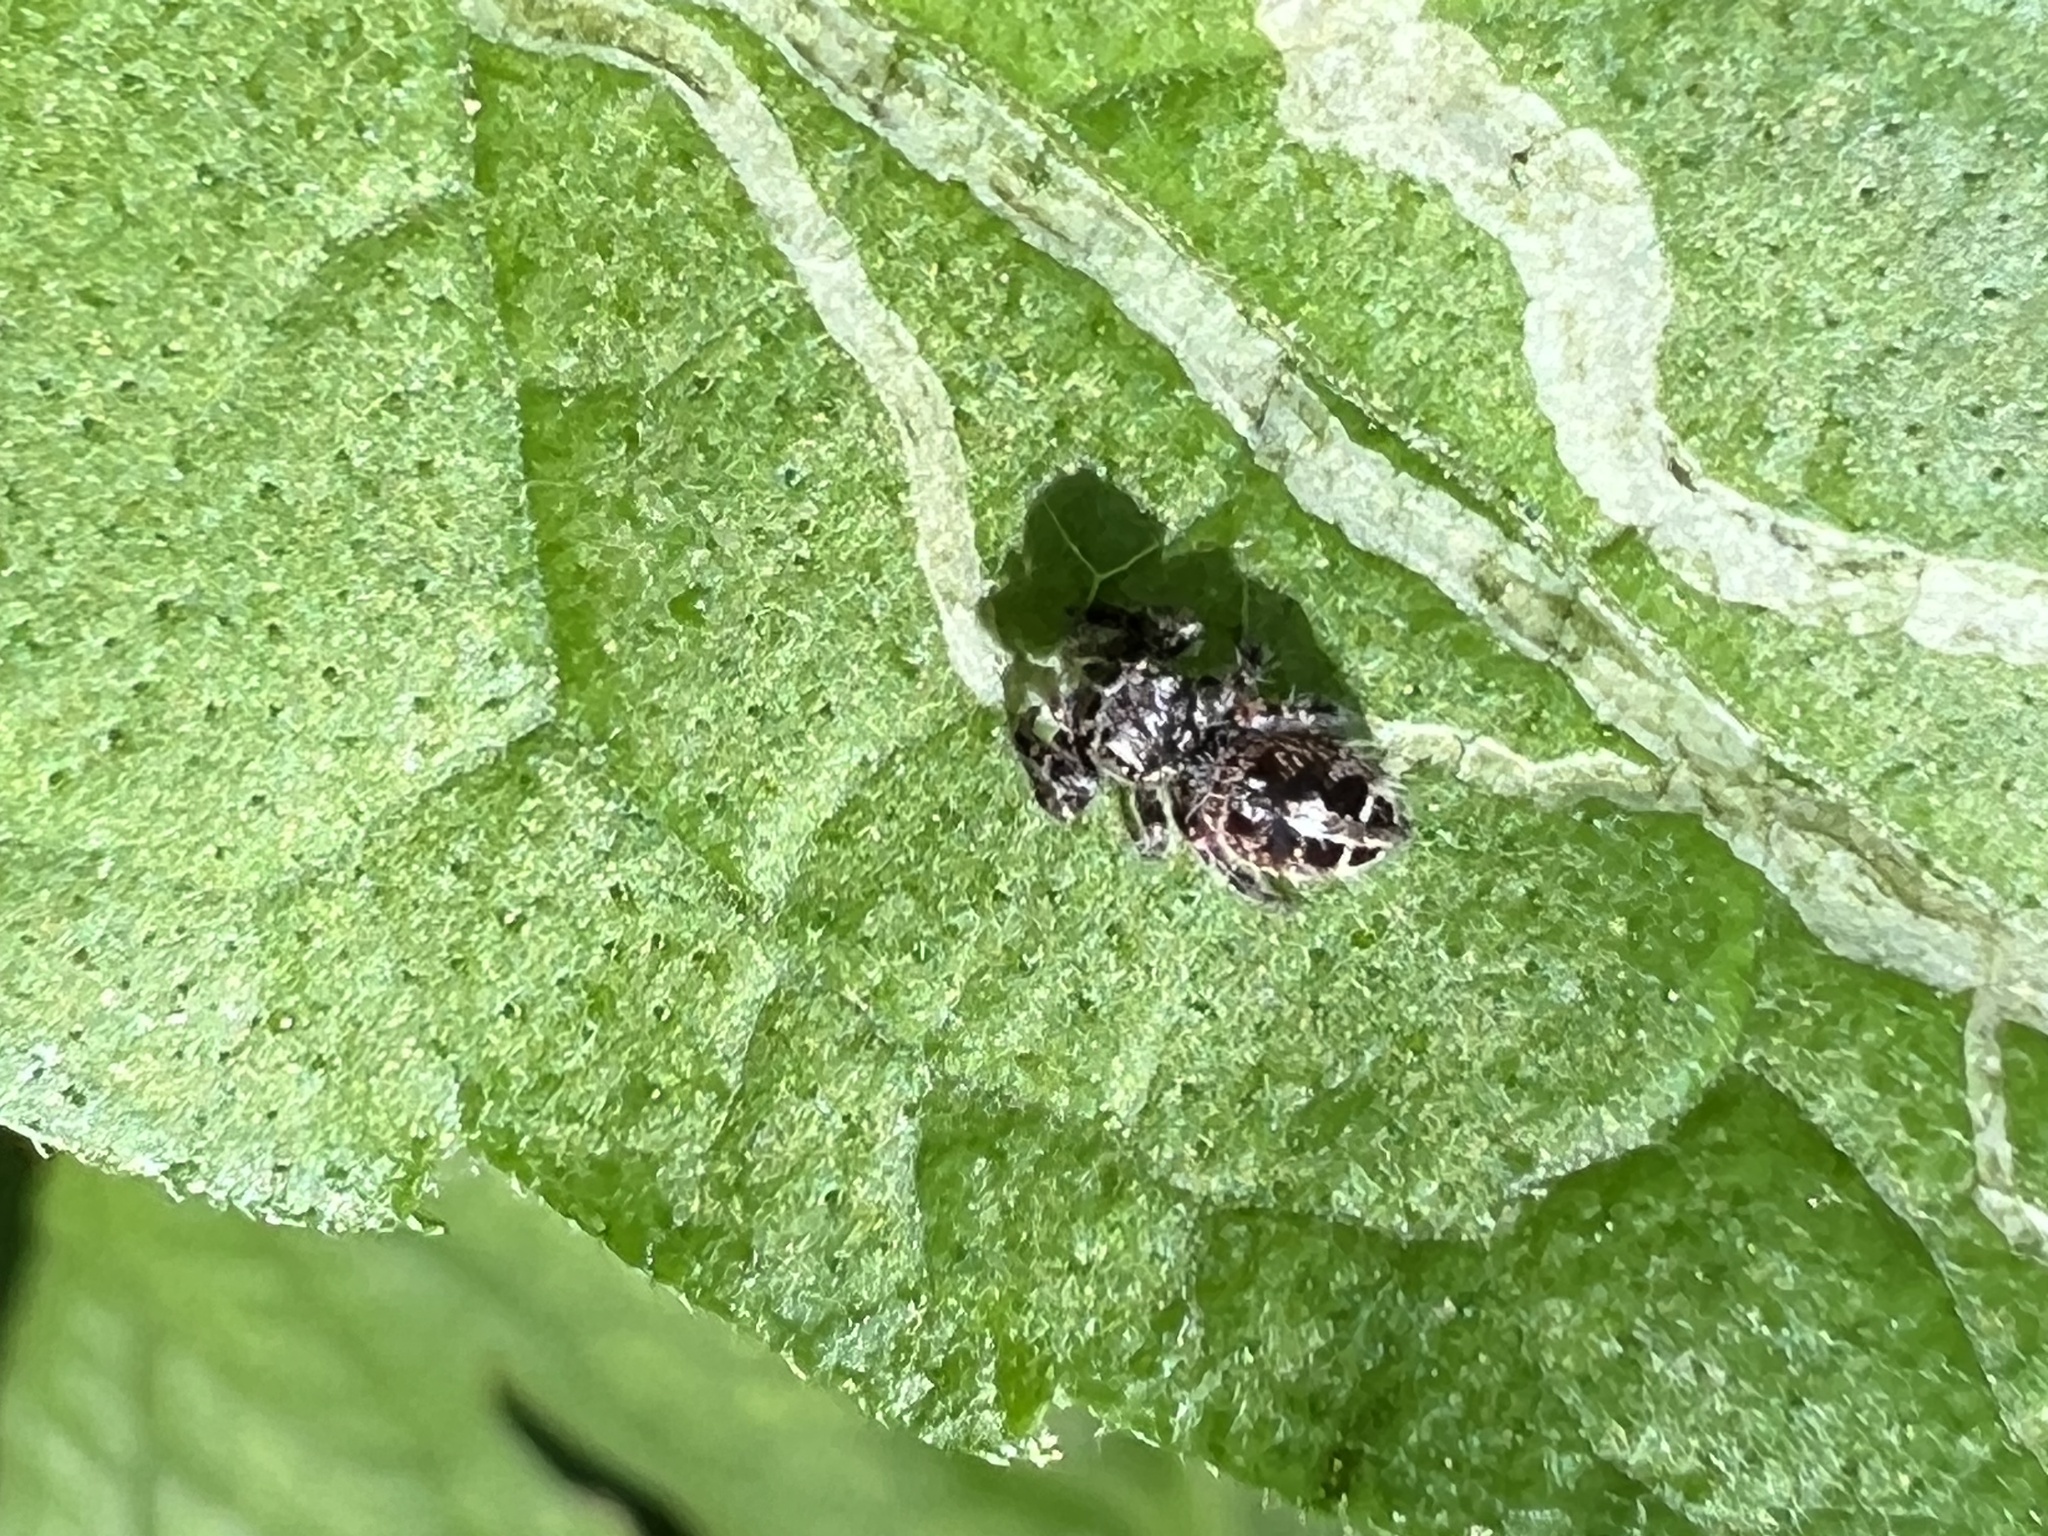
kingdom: Animalia
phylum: Arthropoda
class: Arachnida
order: Araneae
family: Salticidae
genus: Phidippus
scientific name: Phidippus putnami
